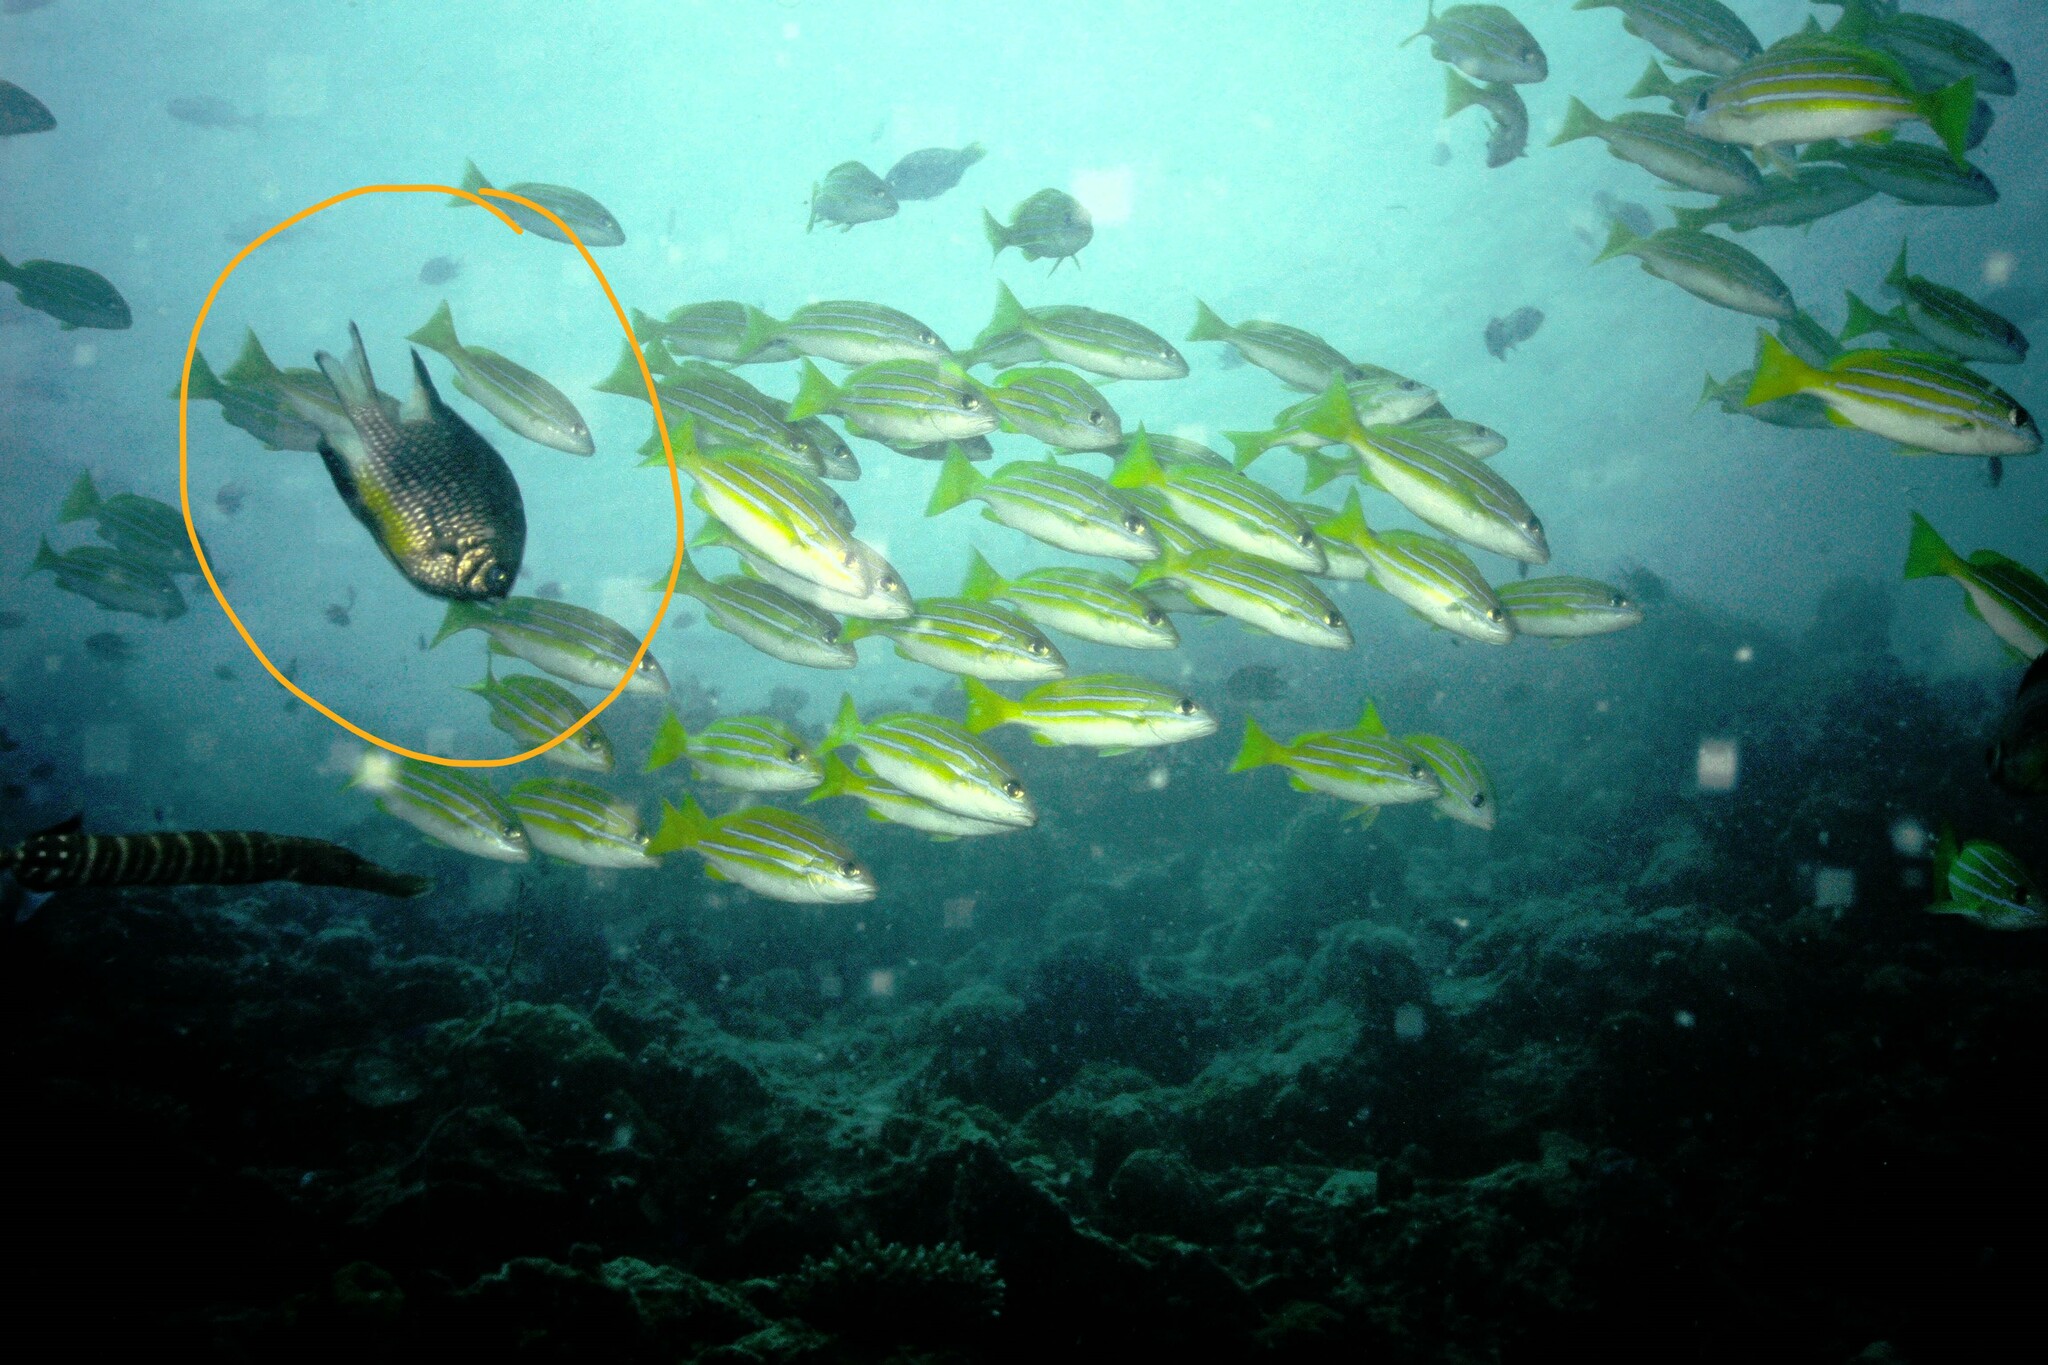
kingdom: Animalia
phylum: Chordata
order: Perciformes
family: Pomacentridae
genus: Amblyglyphidodon
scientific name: Amblyglyphidodon leucogaster
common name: White-belly damsel
